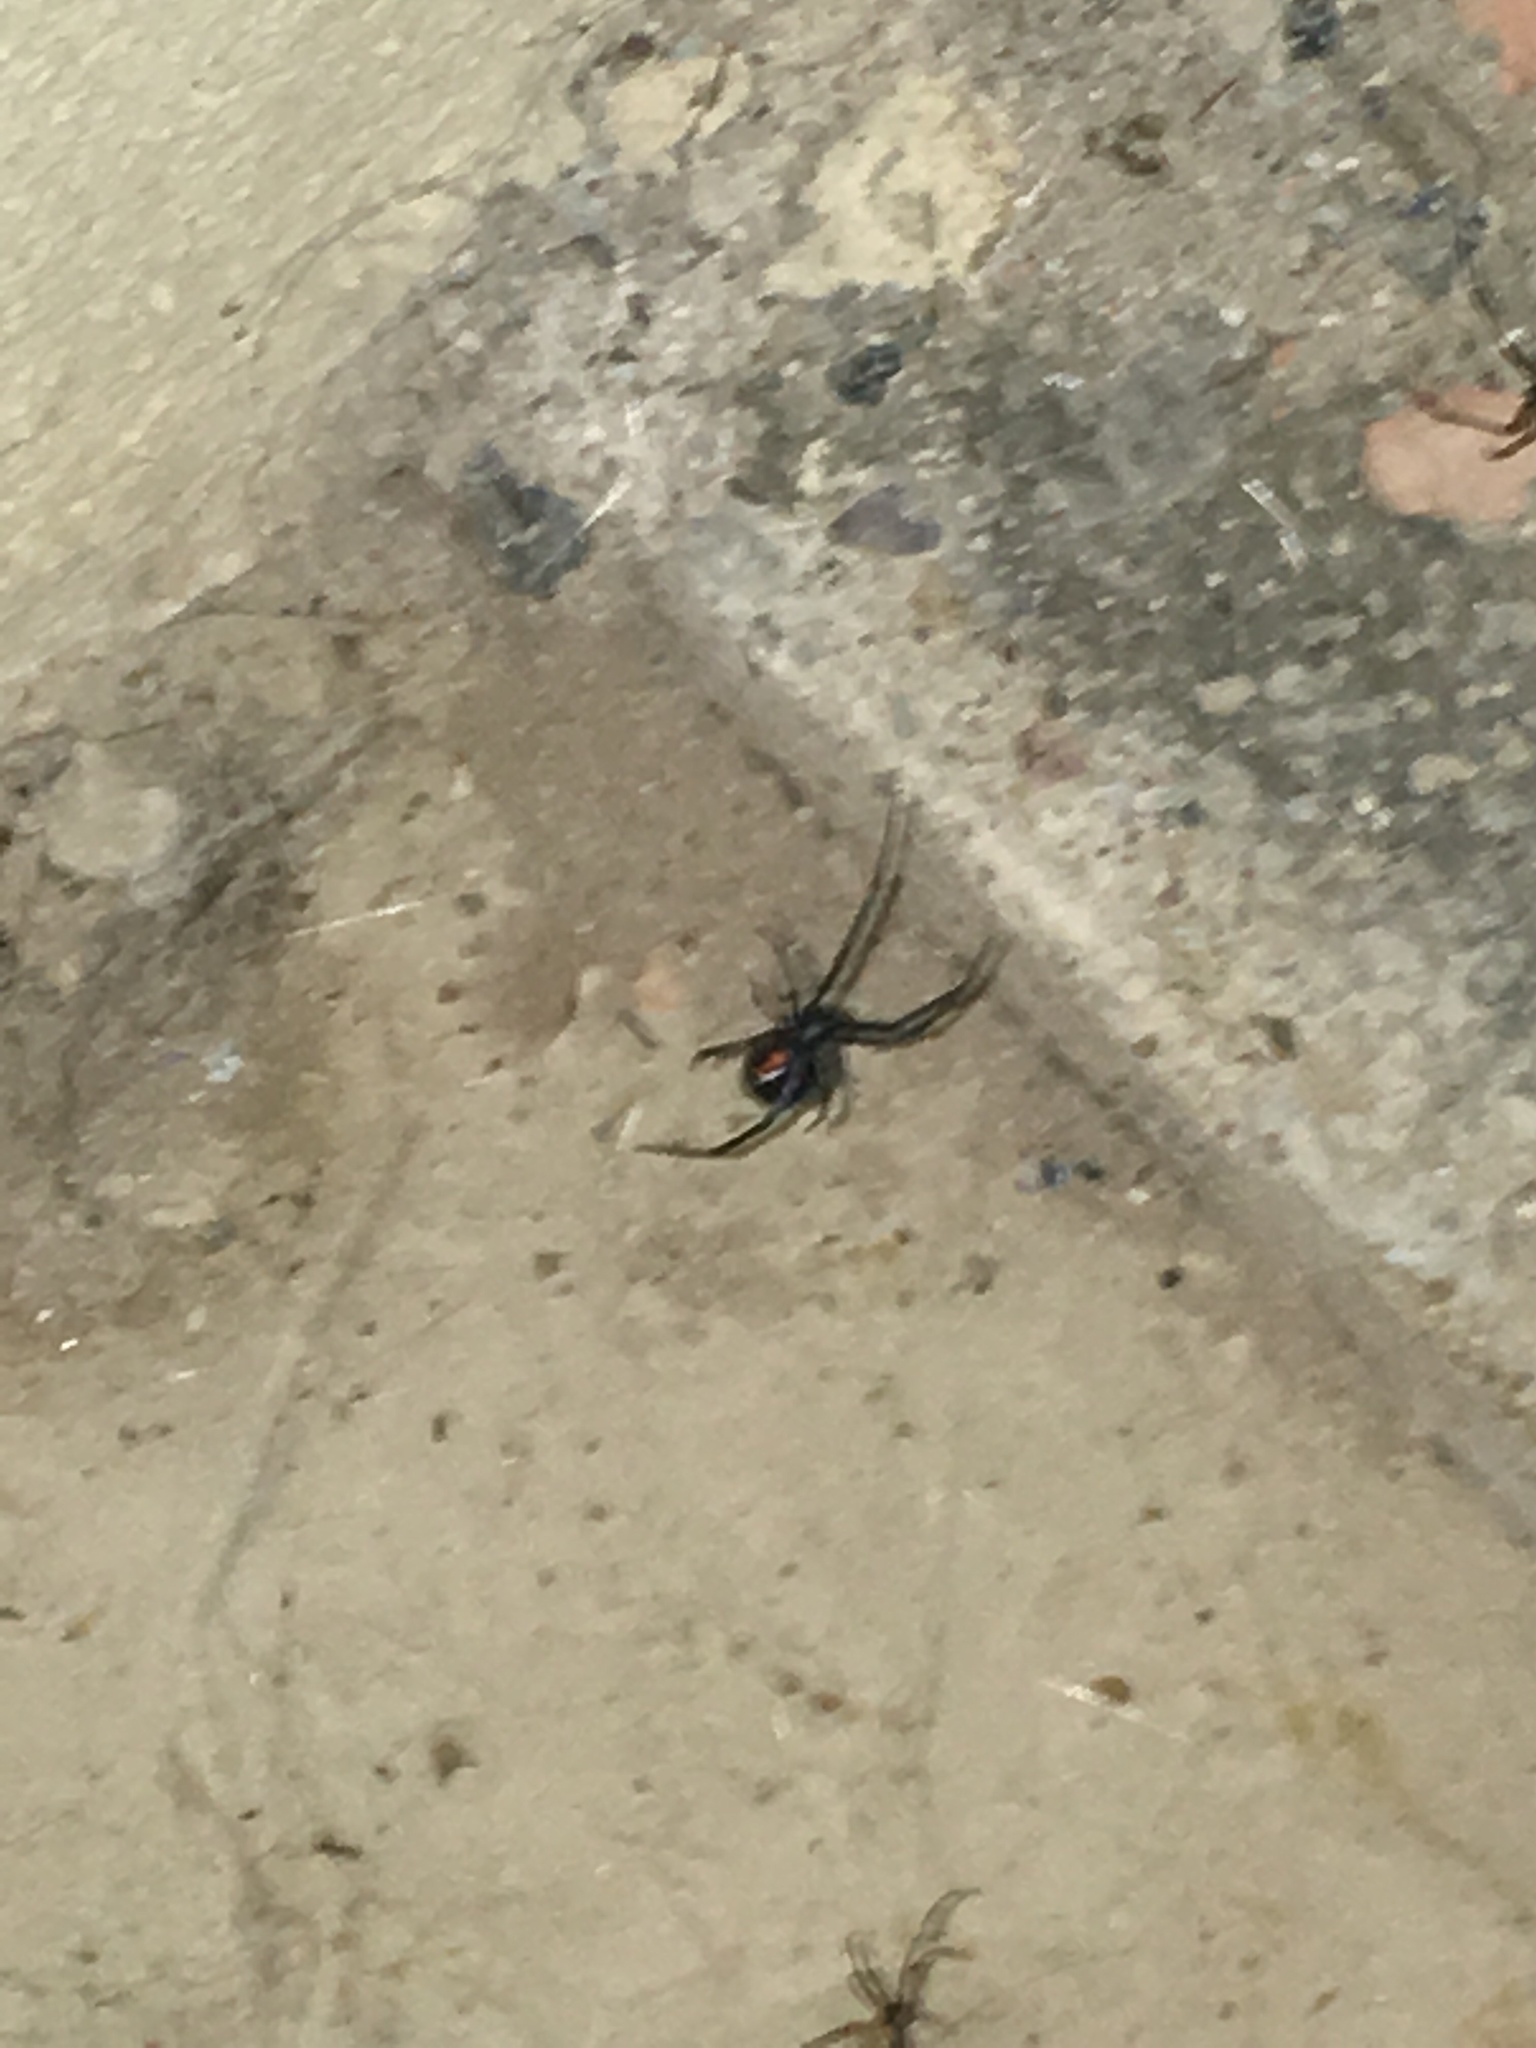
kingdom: Animalia
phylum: Arthropoda
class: Arachnida
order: Araneae
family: Theridiidae
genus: Latrodectus
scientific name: Latrodectus hesperus
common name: Western black widow
